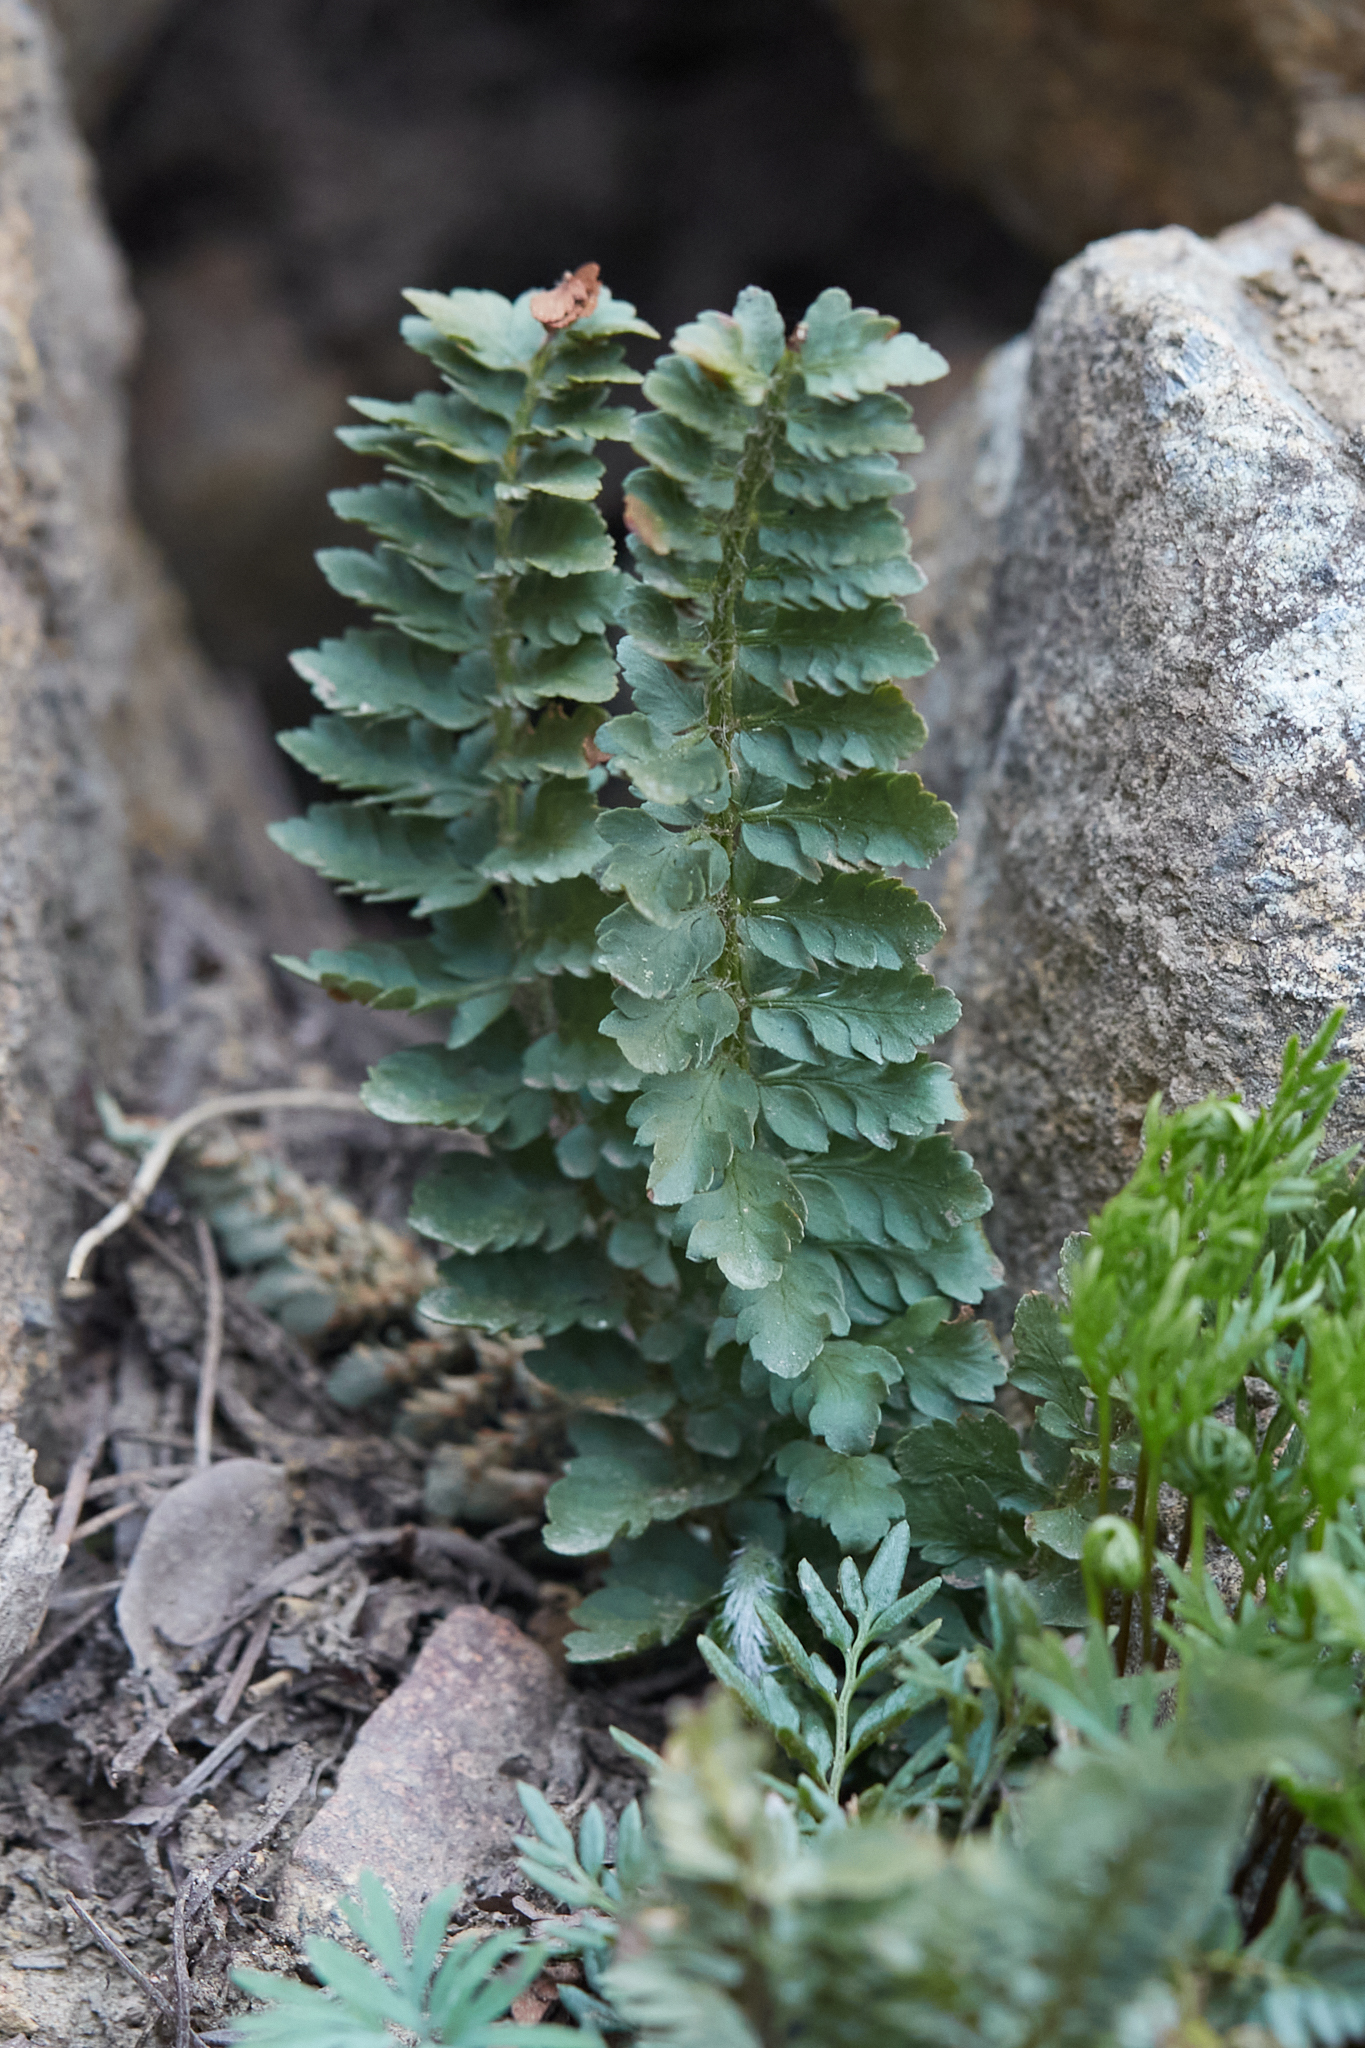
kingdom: Plantae
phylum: Tracheophyta
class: Polypodiopsida
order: Polypodiales
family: Dryopteridaceae
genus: Polystichum
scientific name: Polystichum lemmonii
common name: Lemmon's holly fern
